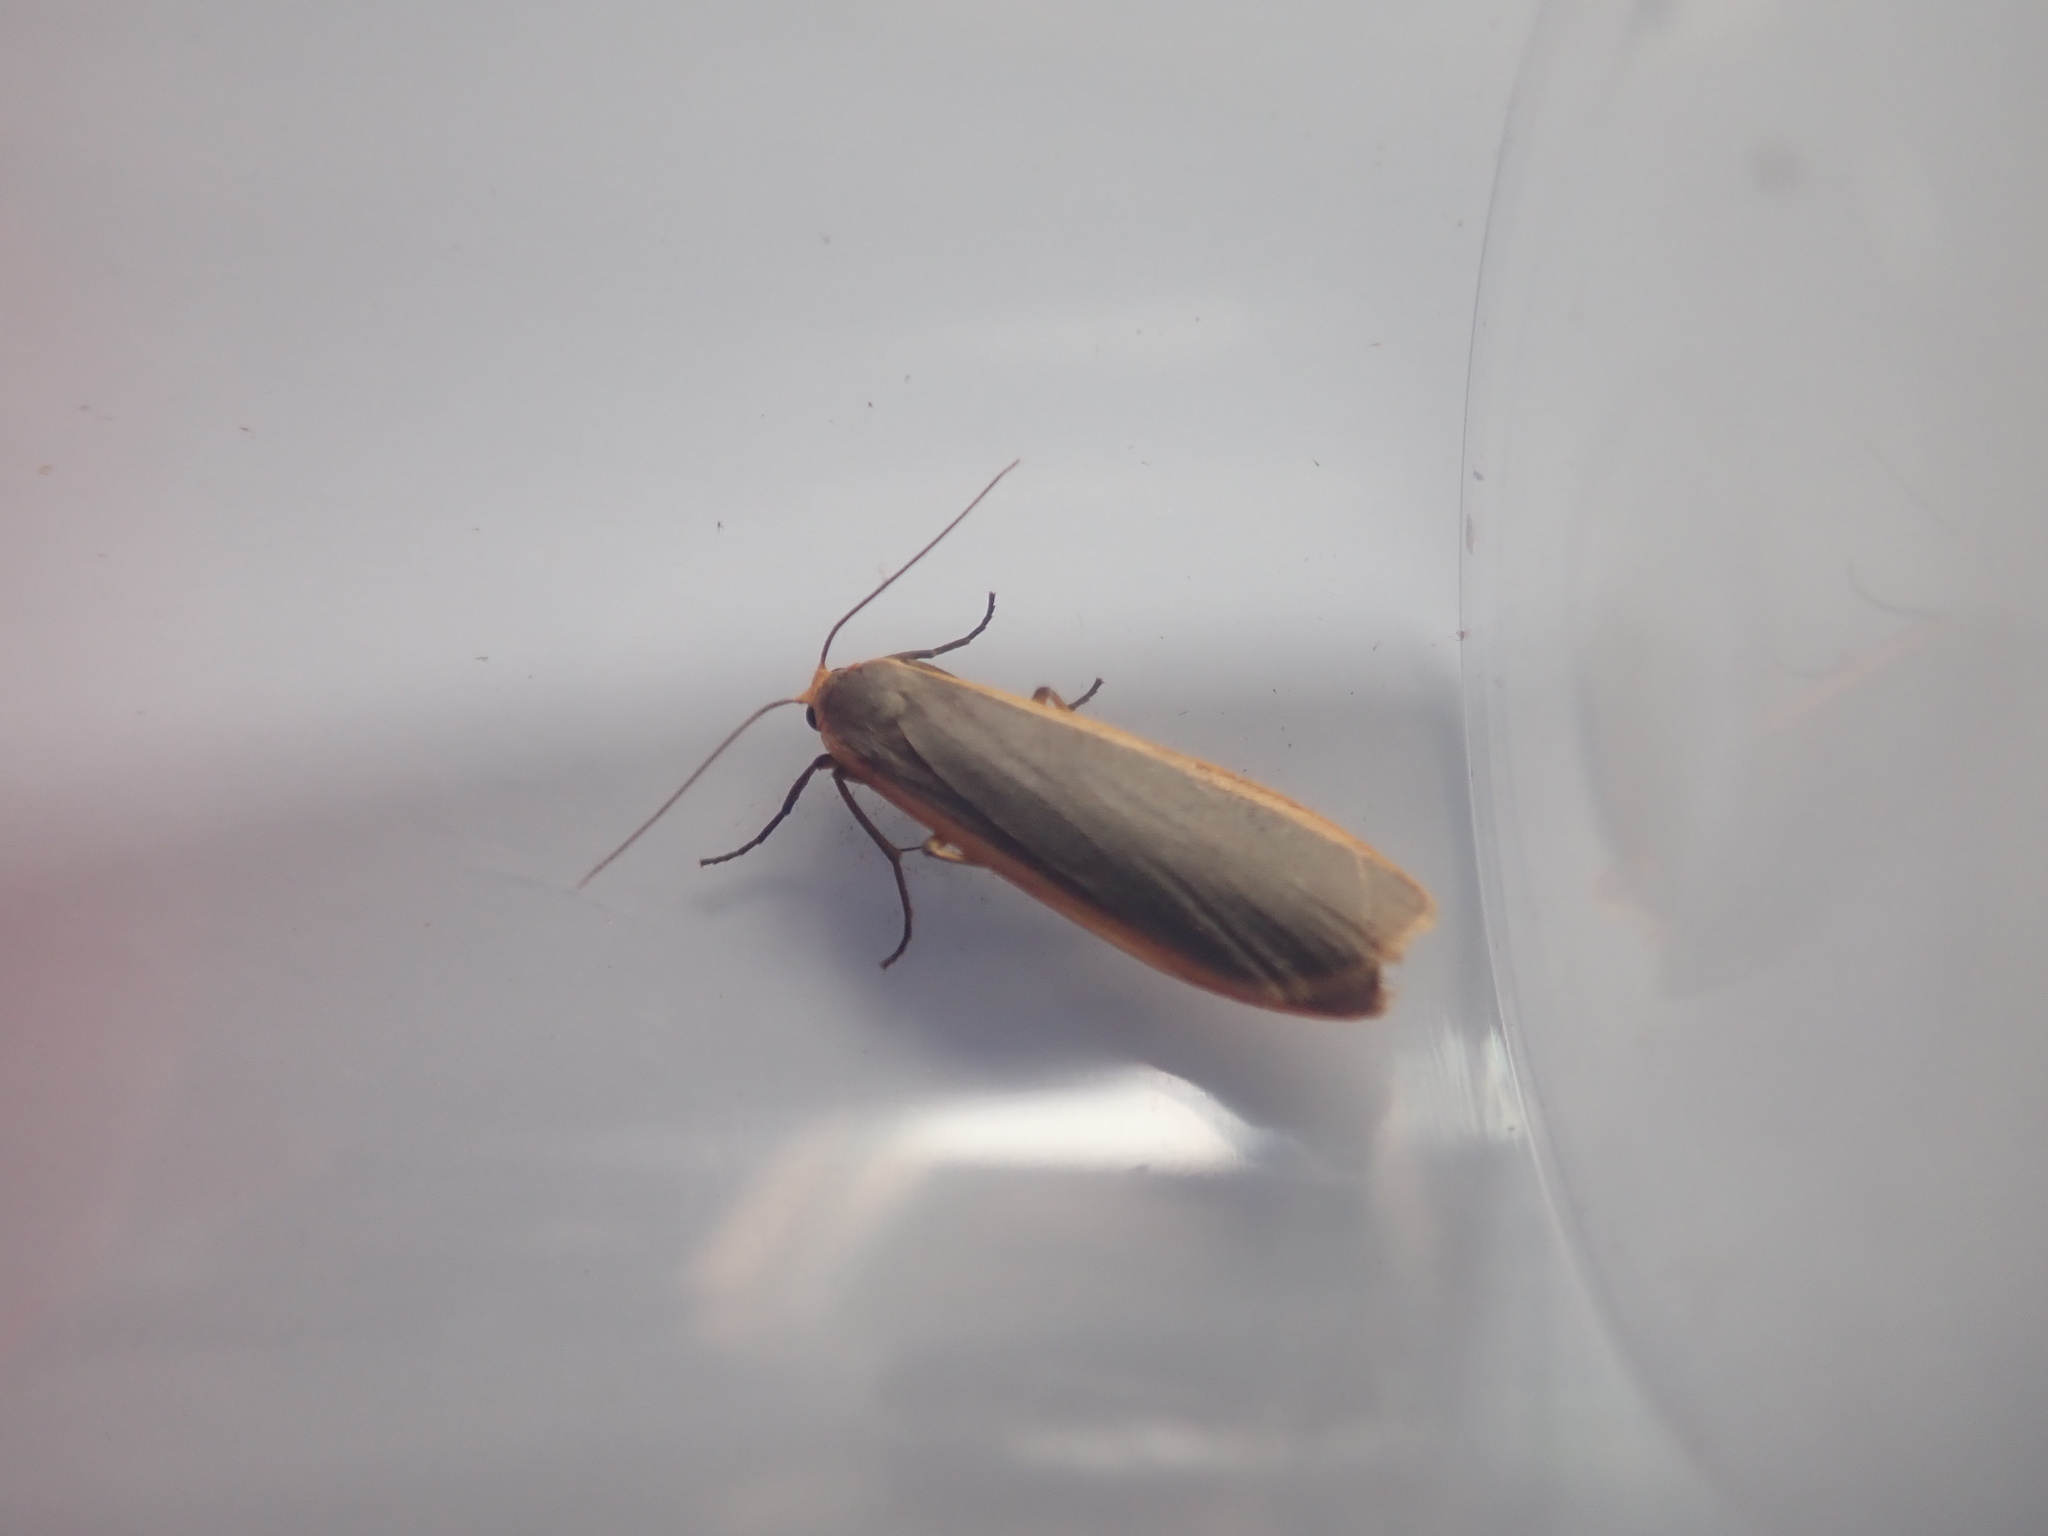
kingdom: Animalia
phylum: Arthropoda
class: Insecta
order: Lepidoptera
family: Erebidae
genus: Nyea
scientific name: Nyea lurideola
